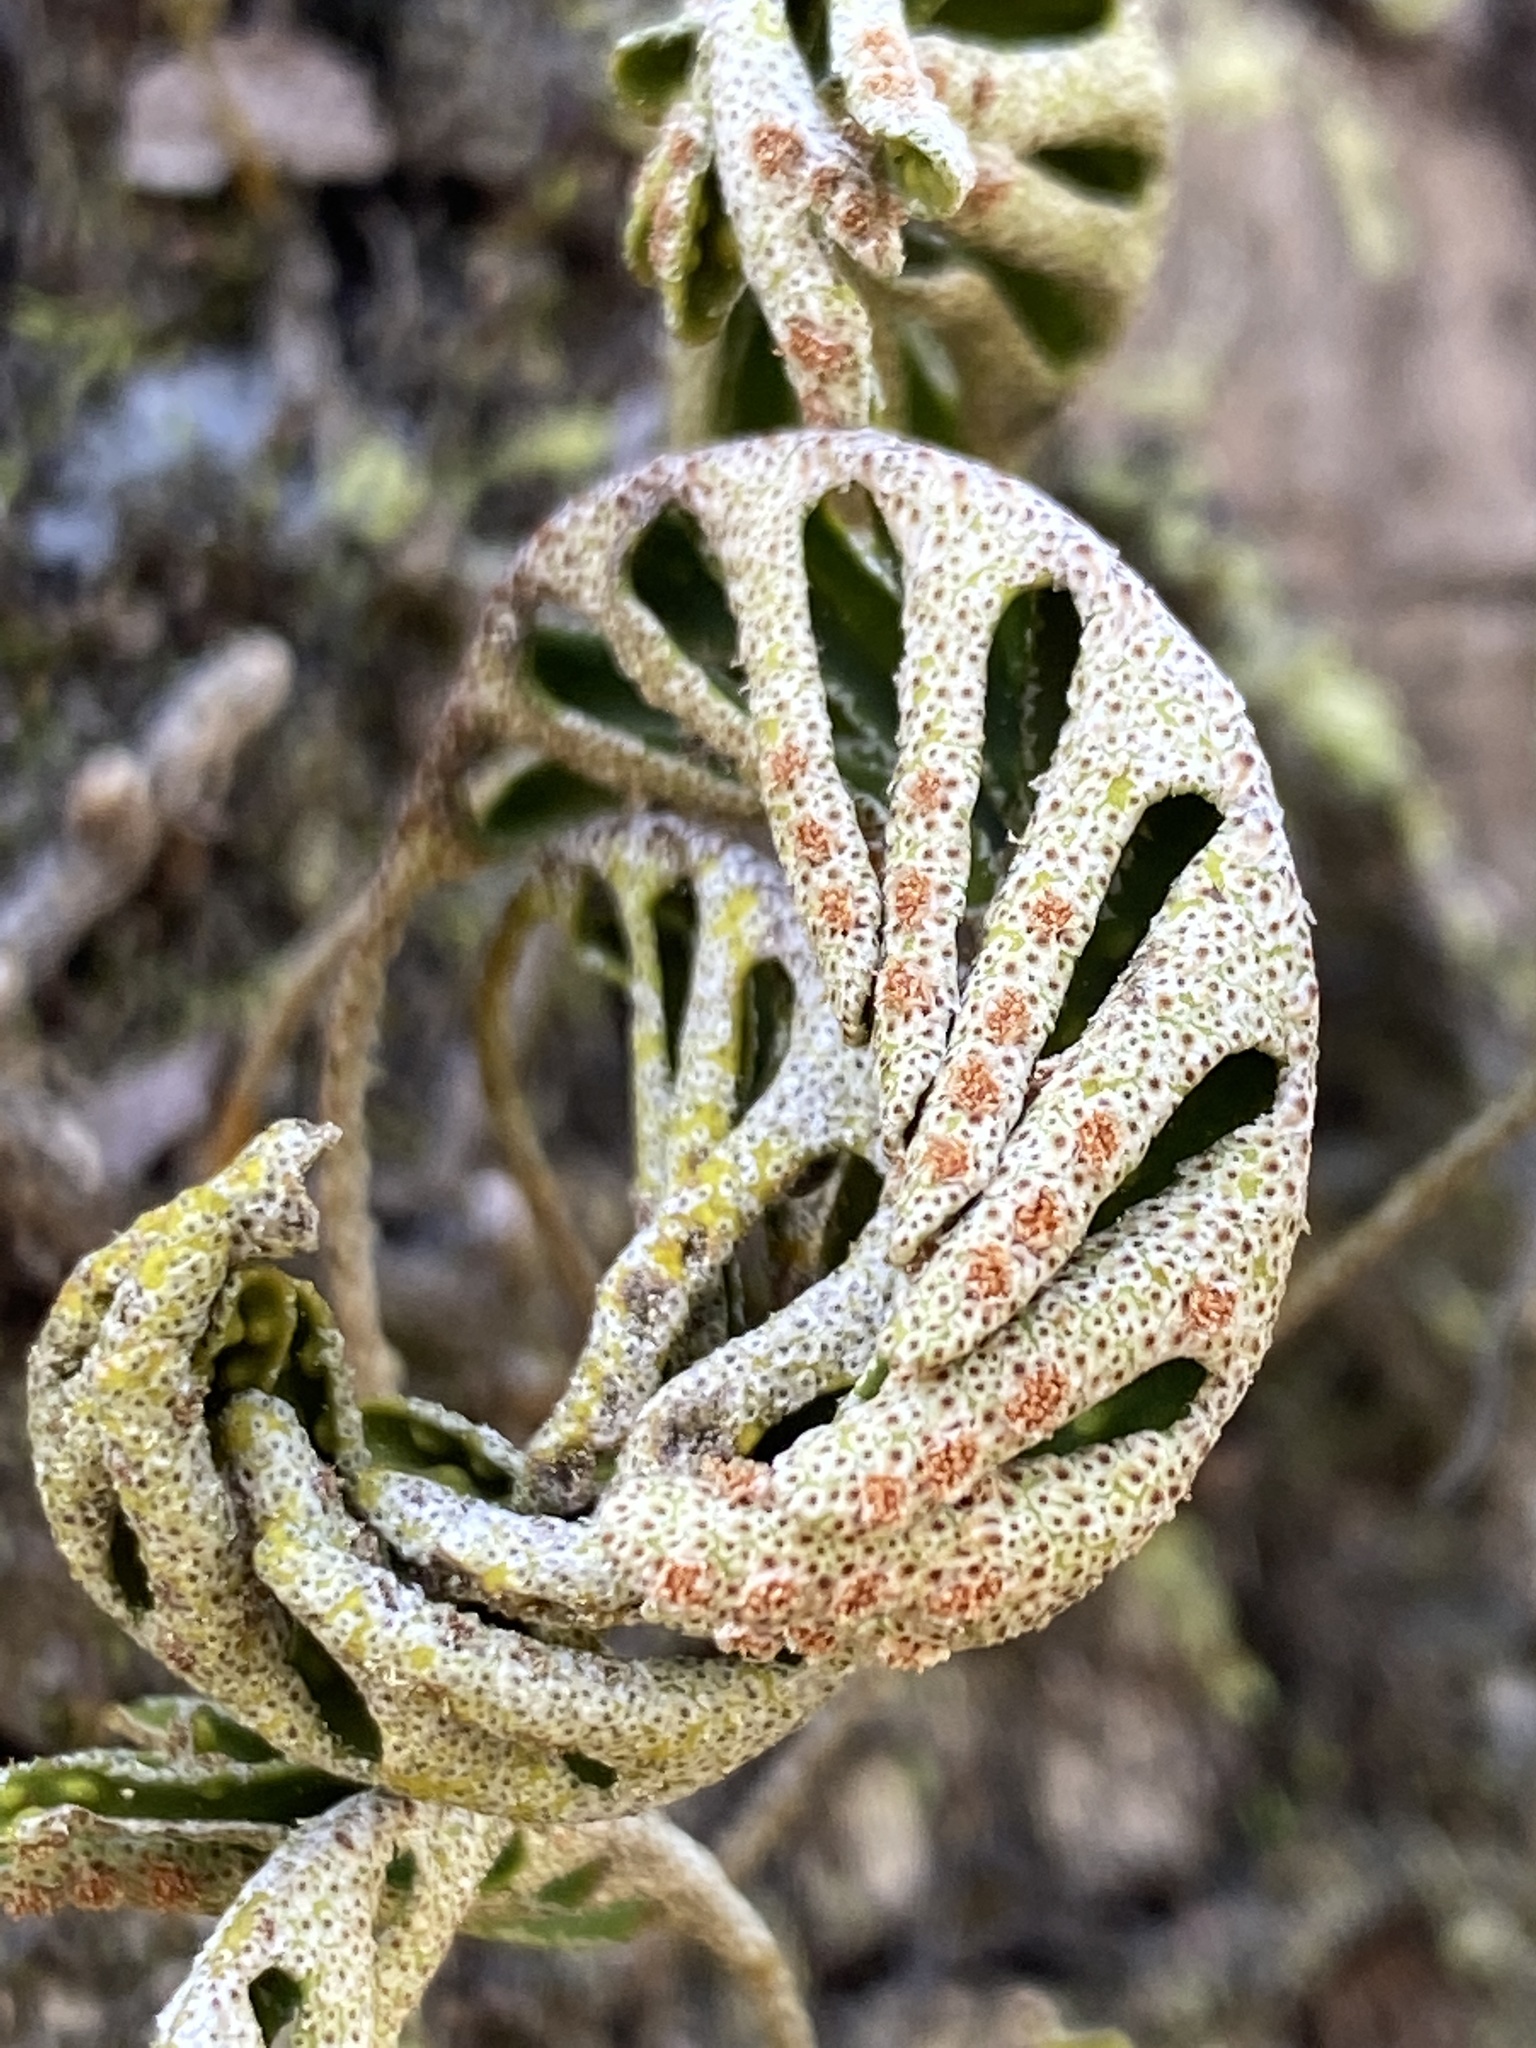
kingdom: Plantae
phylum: Tracheophyta
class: Polypodiopsida
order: Polypodiales
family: Polypodiaceae
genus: Pleopeltis
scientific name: Pleopeltis michauxiana
